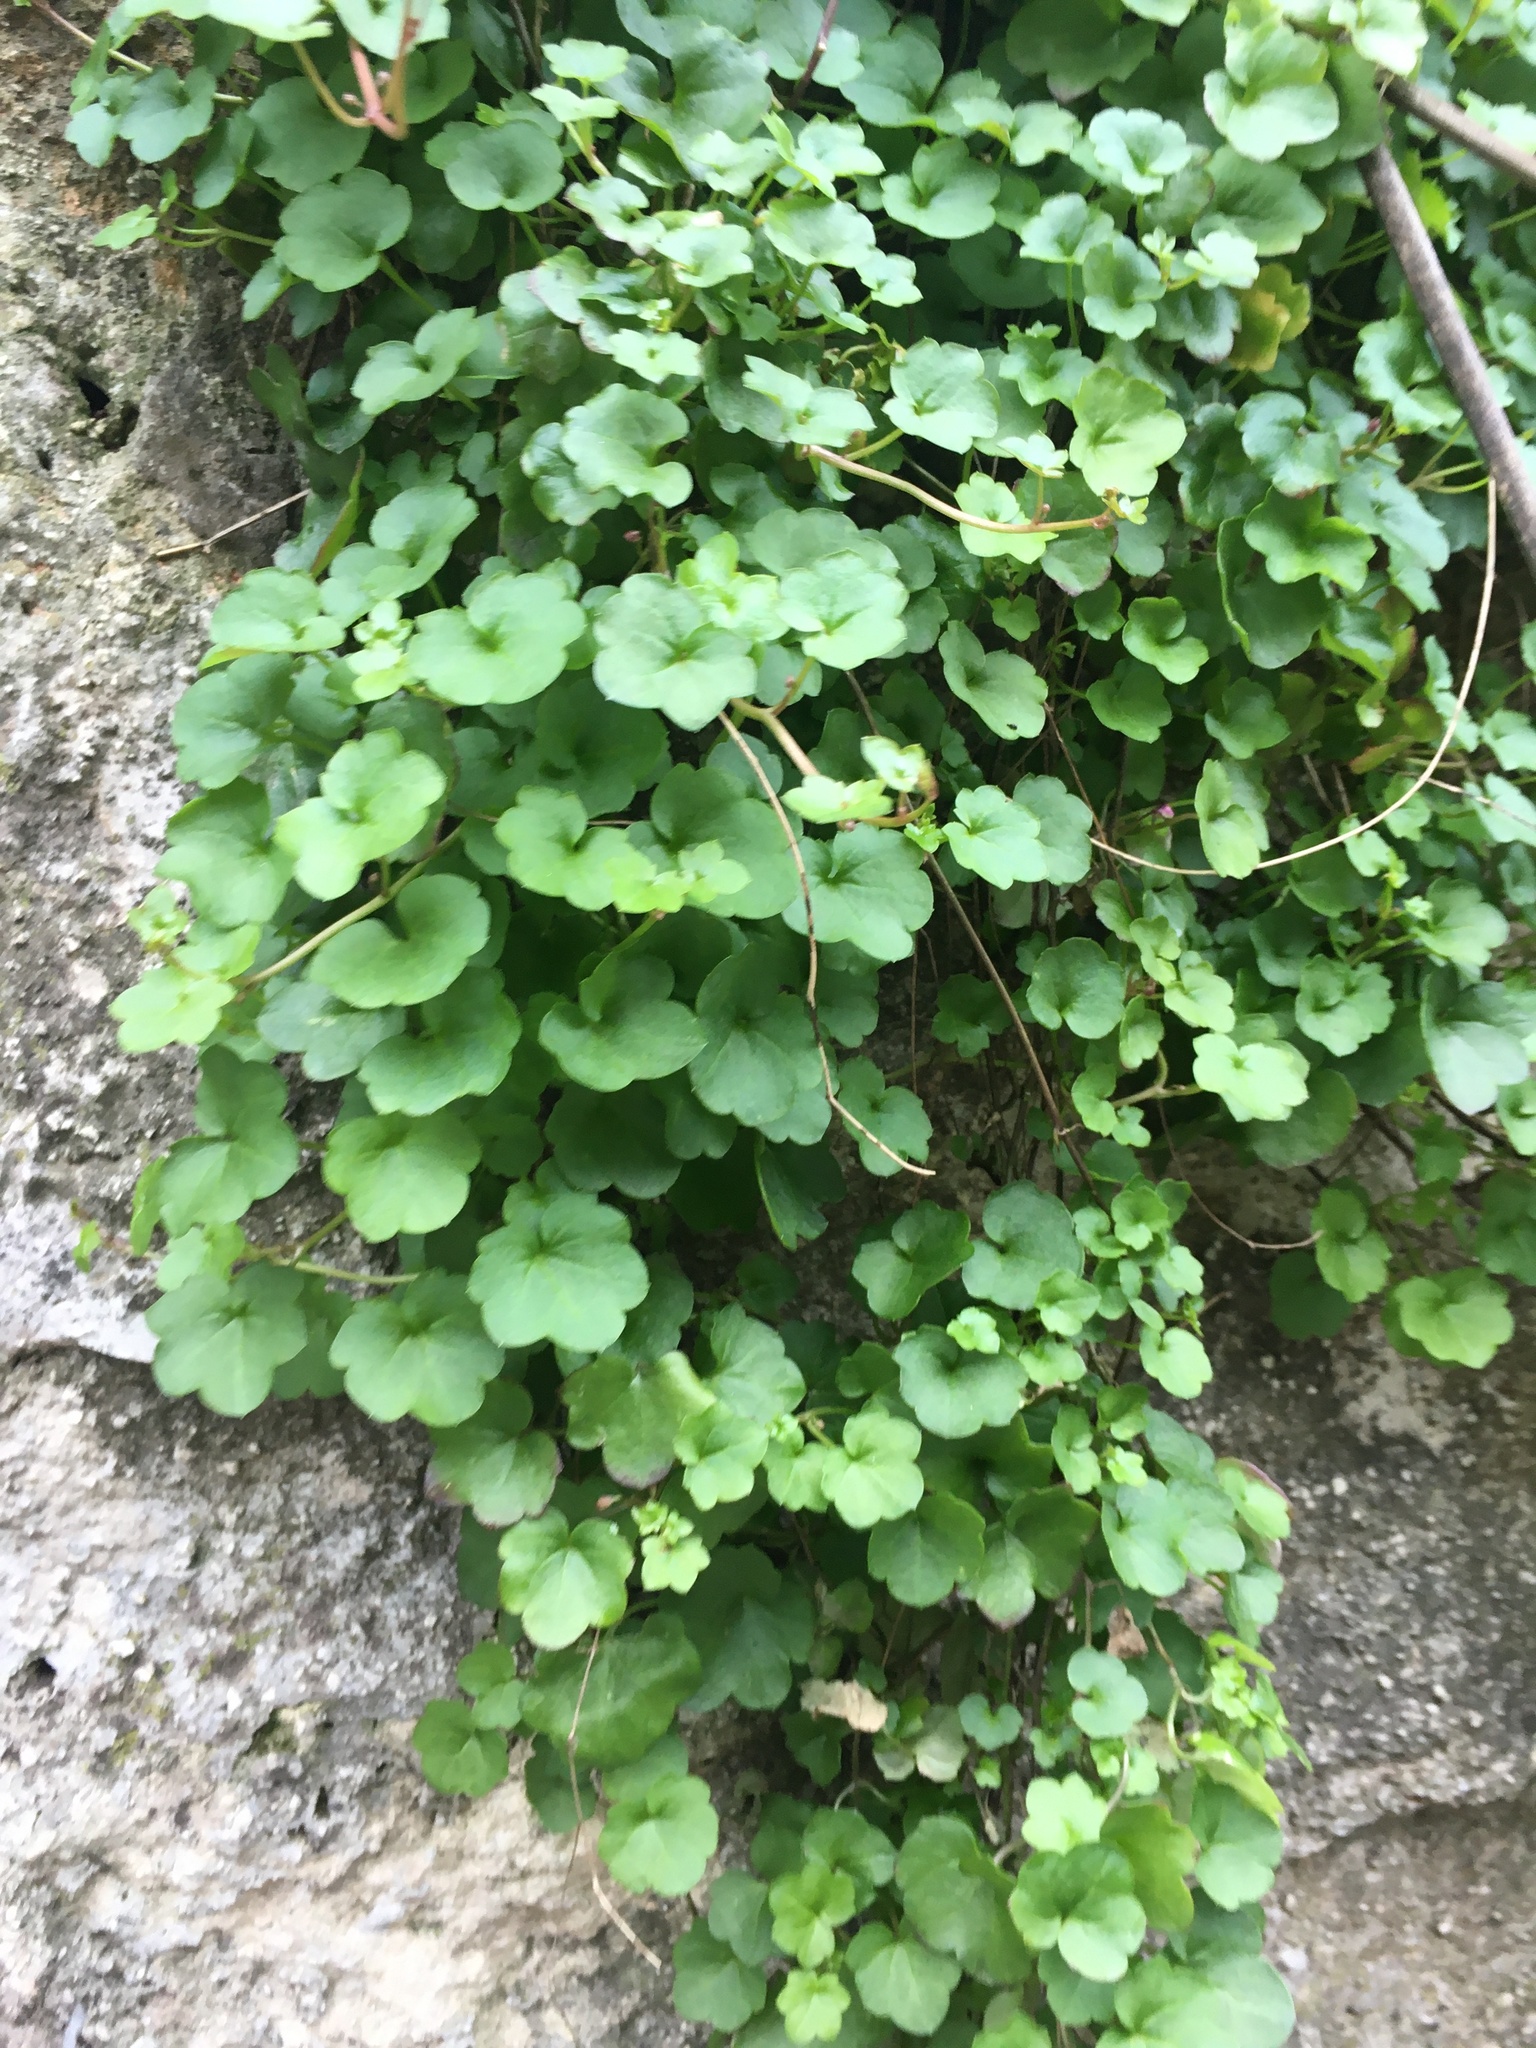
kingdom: Plantae
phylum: Tracheophyta
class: Magnoliopsida
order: Lamiales
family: Plantaginaceae
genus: Cymbalaria
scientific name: Cymbalaria muralis
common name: Ivy-leaved toadflax
